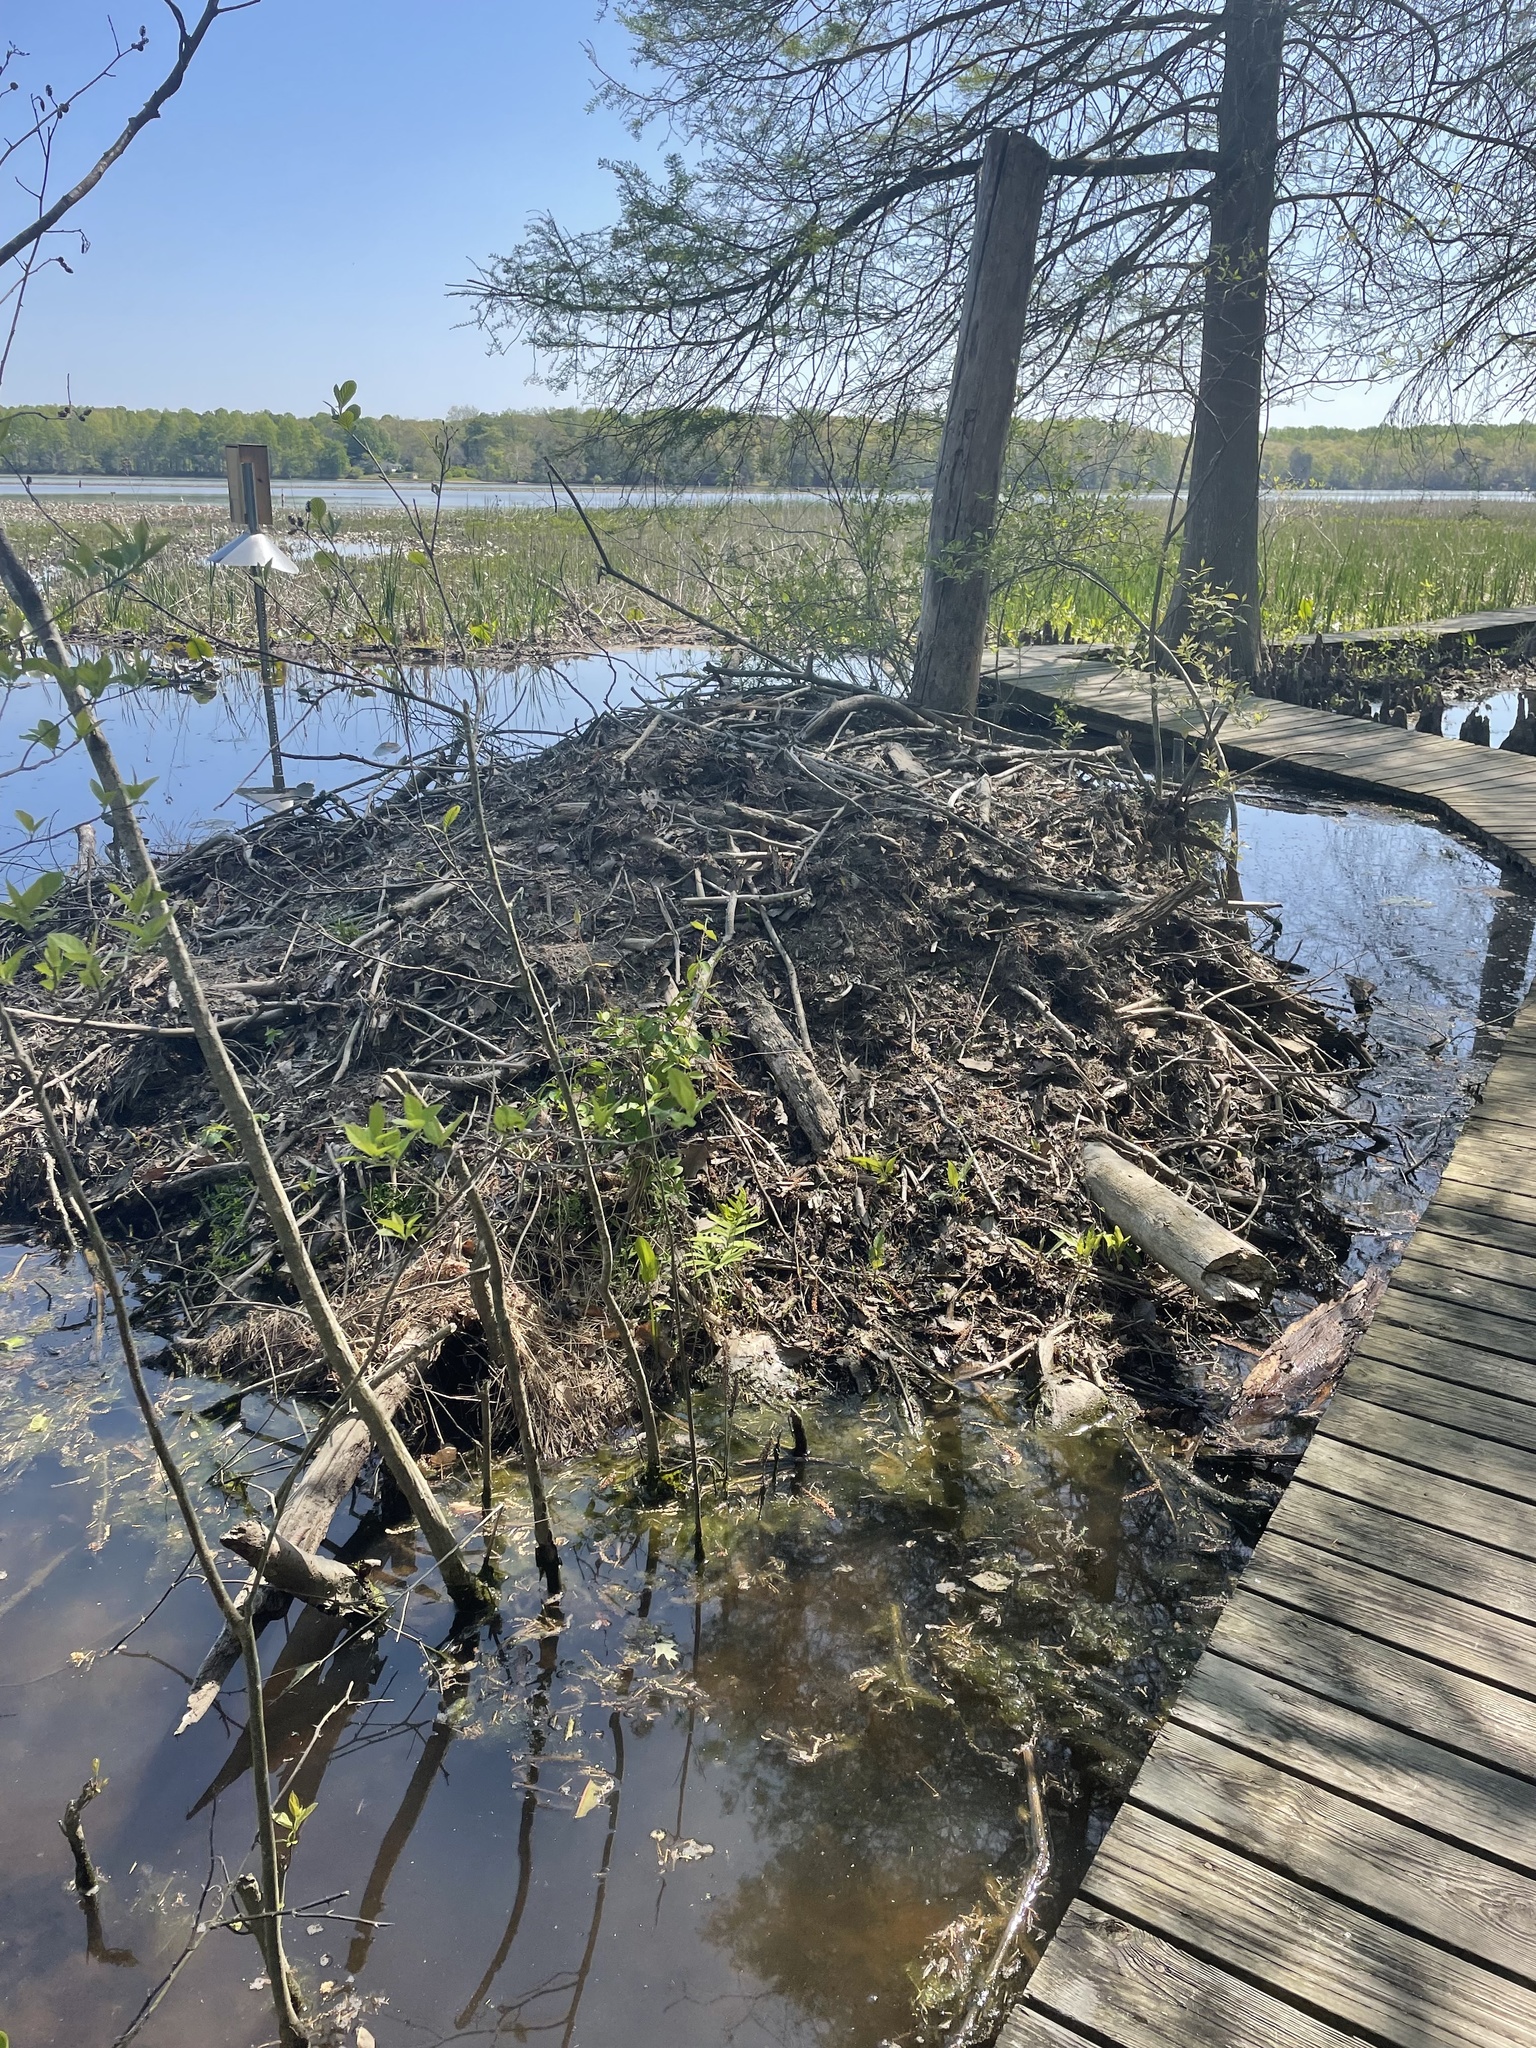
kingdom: Animalia
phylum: Chordata
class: Mammalia
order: Rodentia
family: Castoridae
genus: Castor
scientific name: Castor canadensis
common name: American beaver
